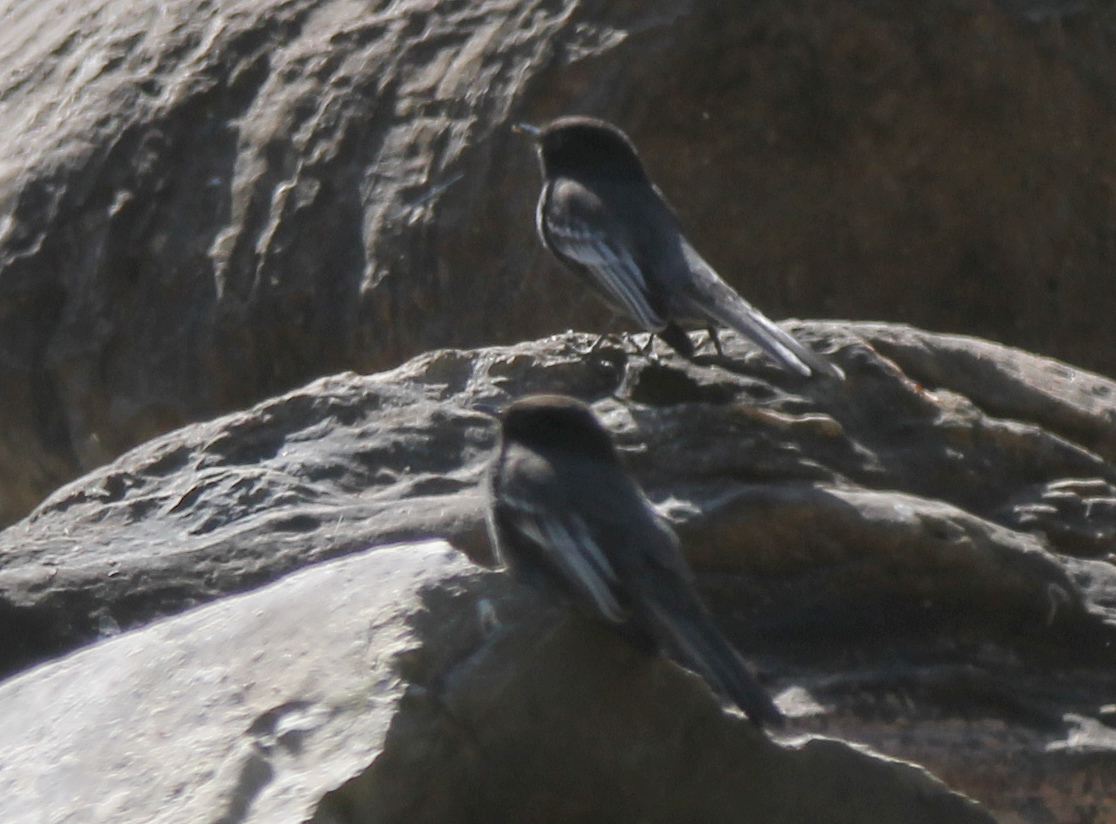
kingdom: Animalia
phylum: Chordata
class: Aves
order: Passeriformes
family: Tyrannidae
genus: Sayornis
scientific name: Sayornis nigricans
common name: Black phoebe
